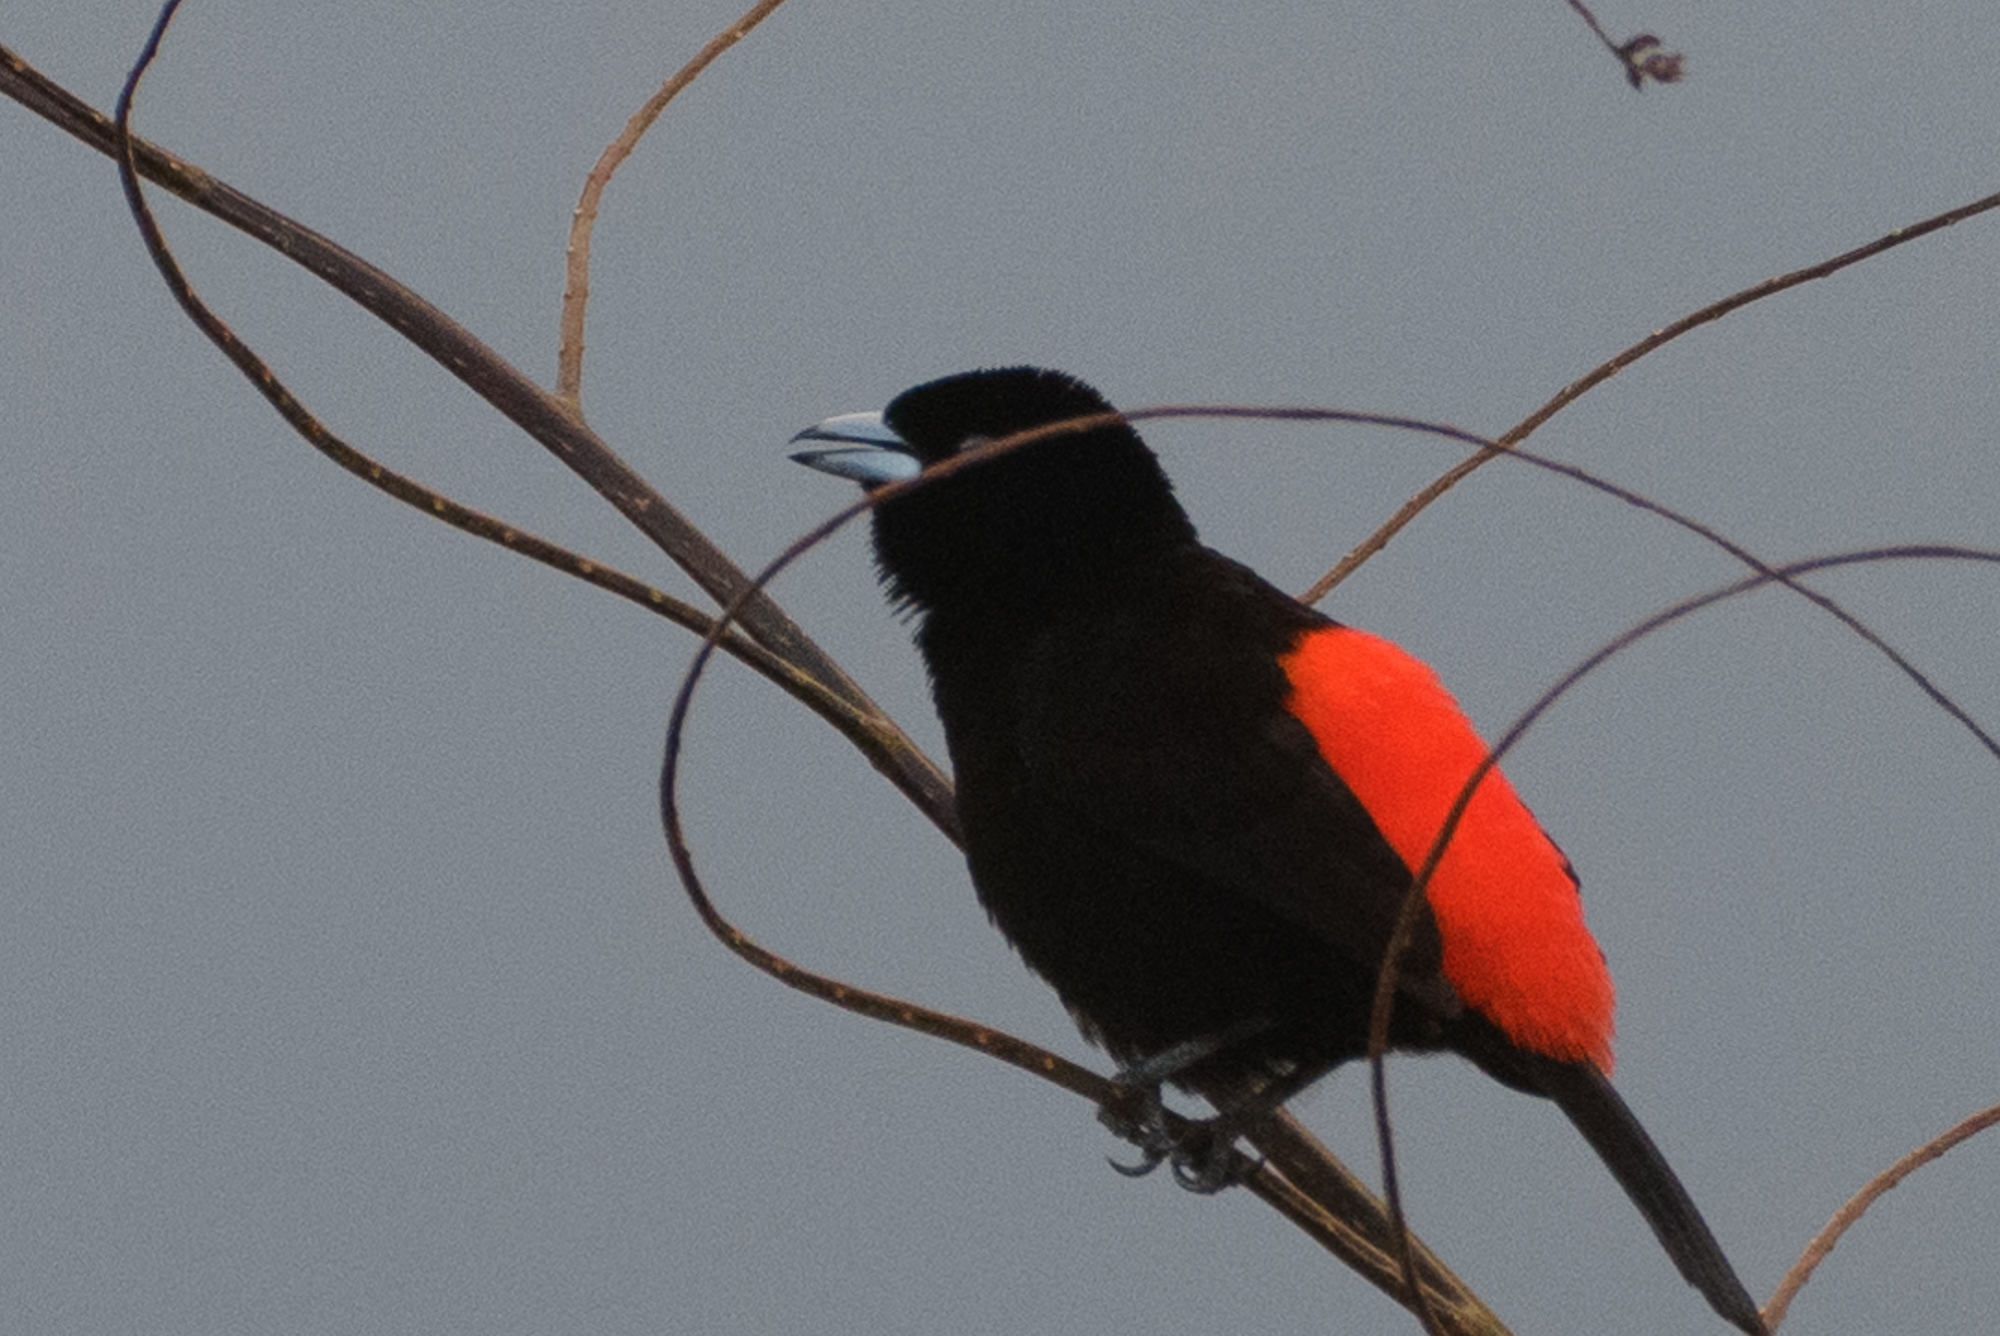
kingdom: Animalia
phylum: Chordata
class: Aves
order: Passeriformes
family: Thraupidae
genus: Ramphocelus
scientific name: Ramphocelus passerinii
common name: Passerini's tanager
